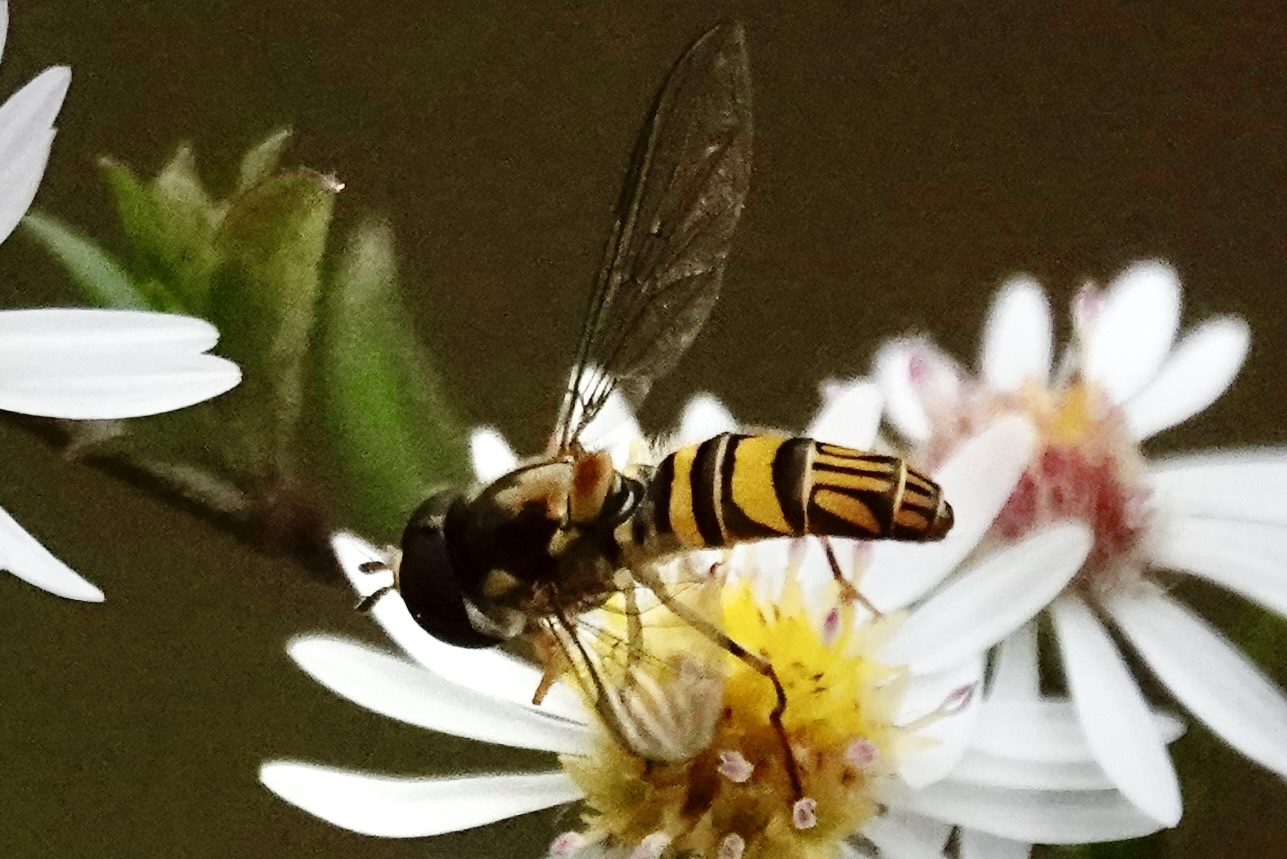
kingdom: Animalia
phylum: Arthropoda
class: Insecta
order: Diptera
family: Syrphidae
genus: Allograpta
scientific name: Allograpta obliqua
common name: Common oblique syrphid
